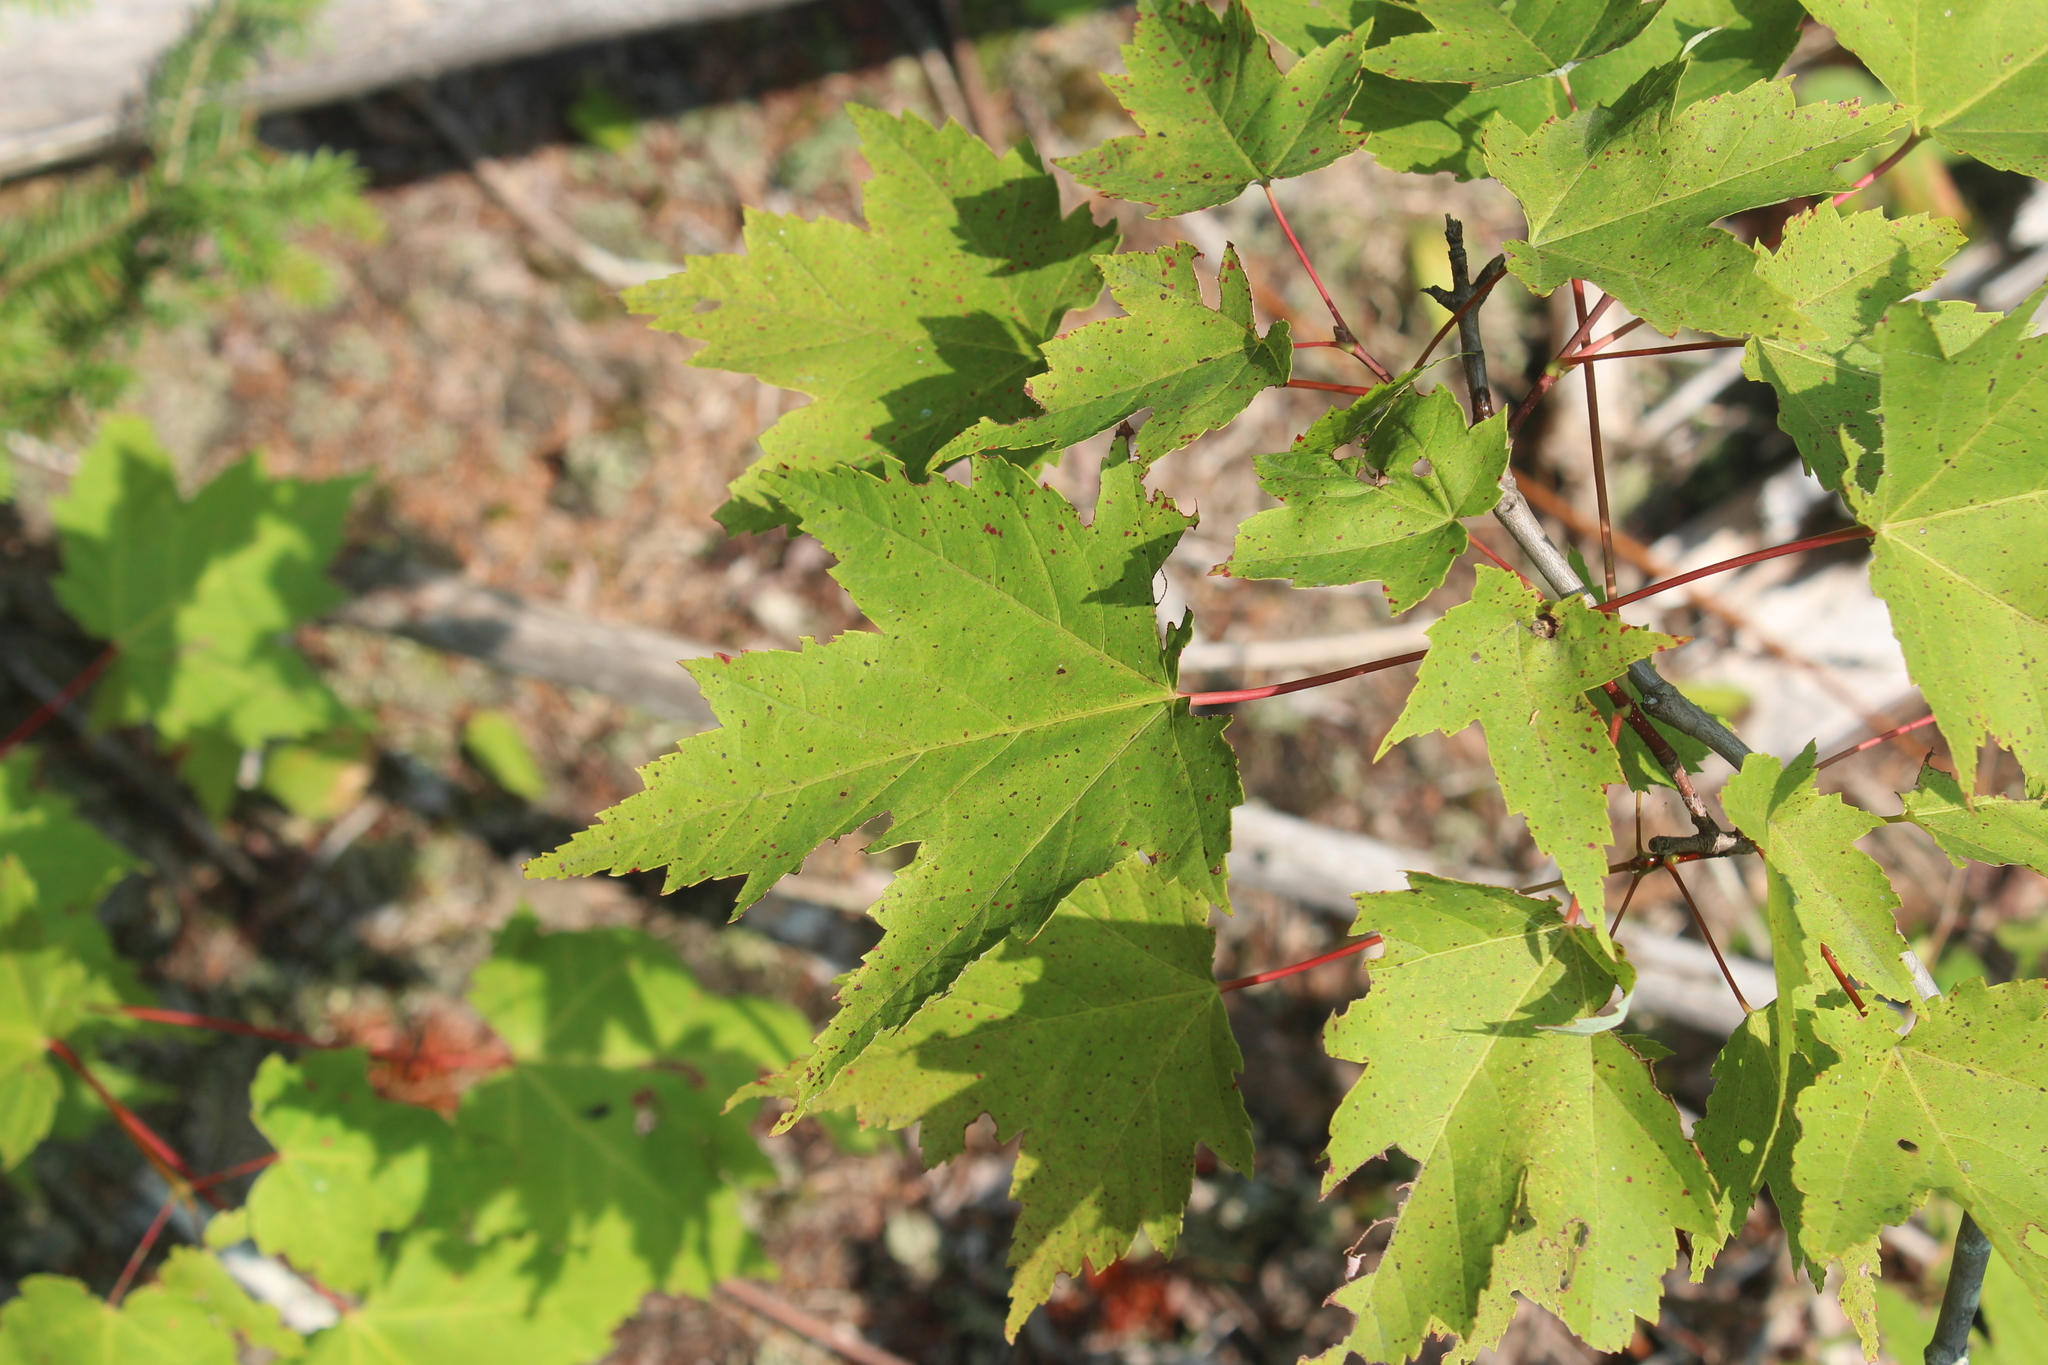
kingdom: Plantae
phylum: Tracheophyta
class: Magnoliopsida
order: Sapindales
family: Sapindaceae
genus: Acer
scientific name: Acer rubrum
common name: Red maple
